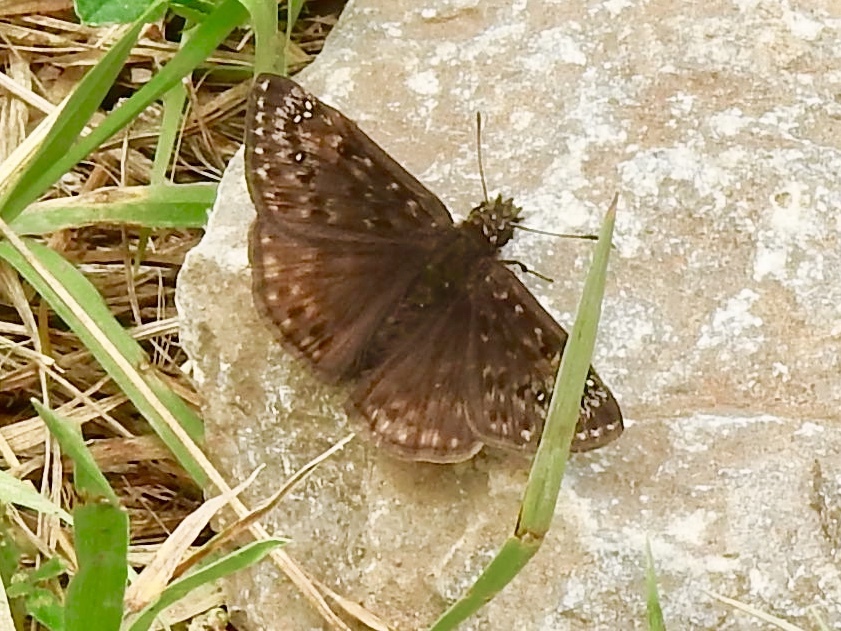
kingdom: Animalia
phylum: Arthropoda
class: Insecta
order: Lepidoptera
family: Hesperiidae
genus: Erynnis
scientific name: Erynnis horatius
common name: Horace's duskywing
